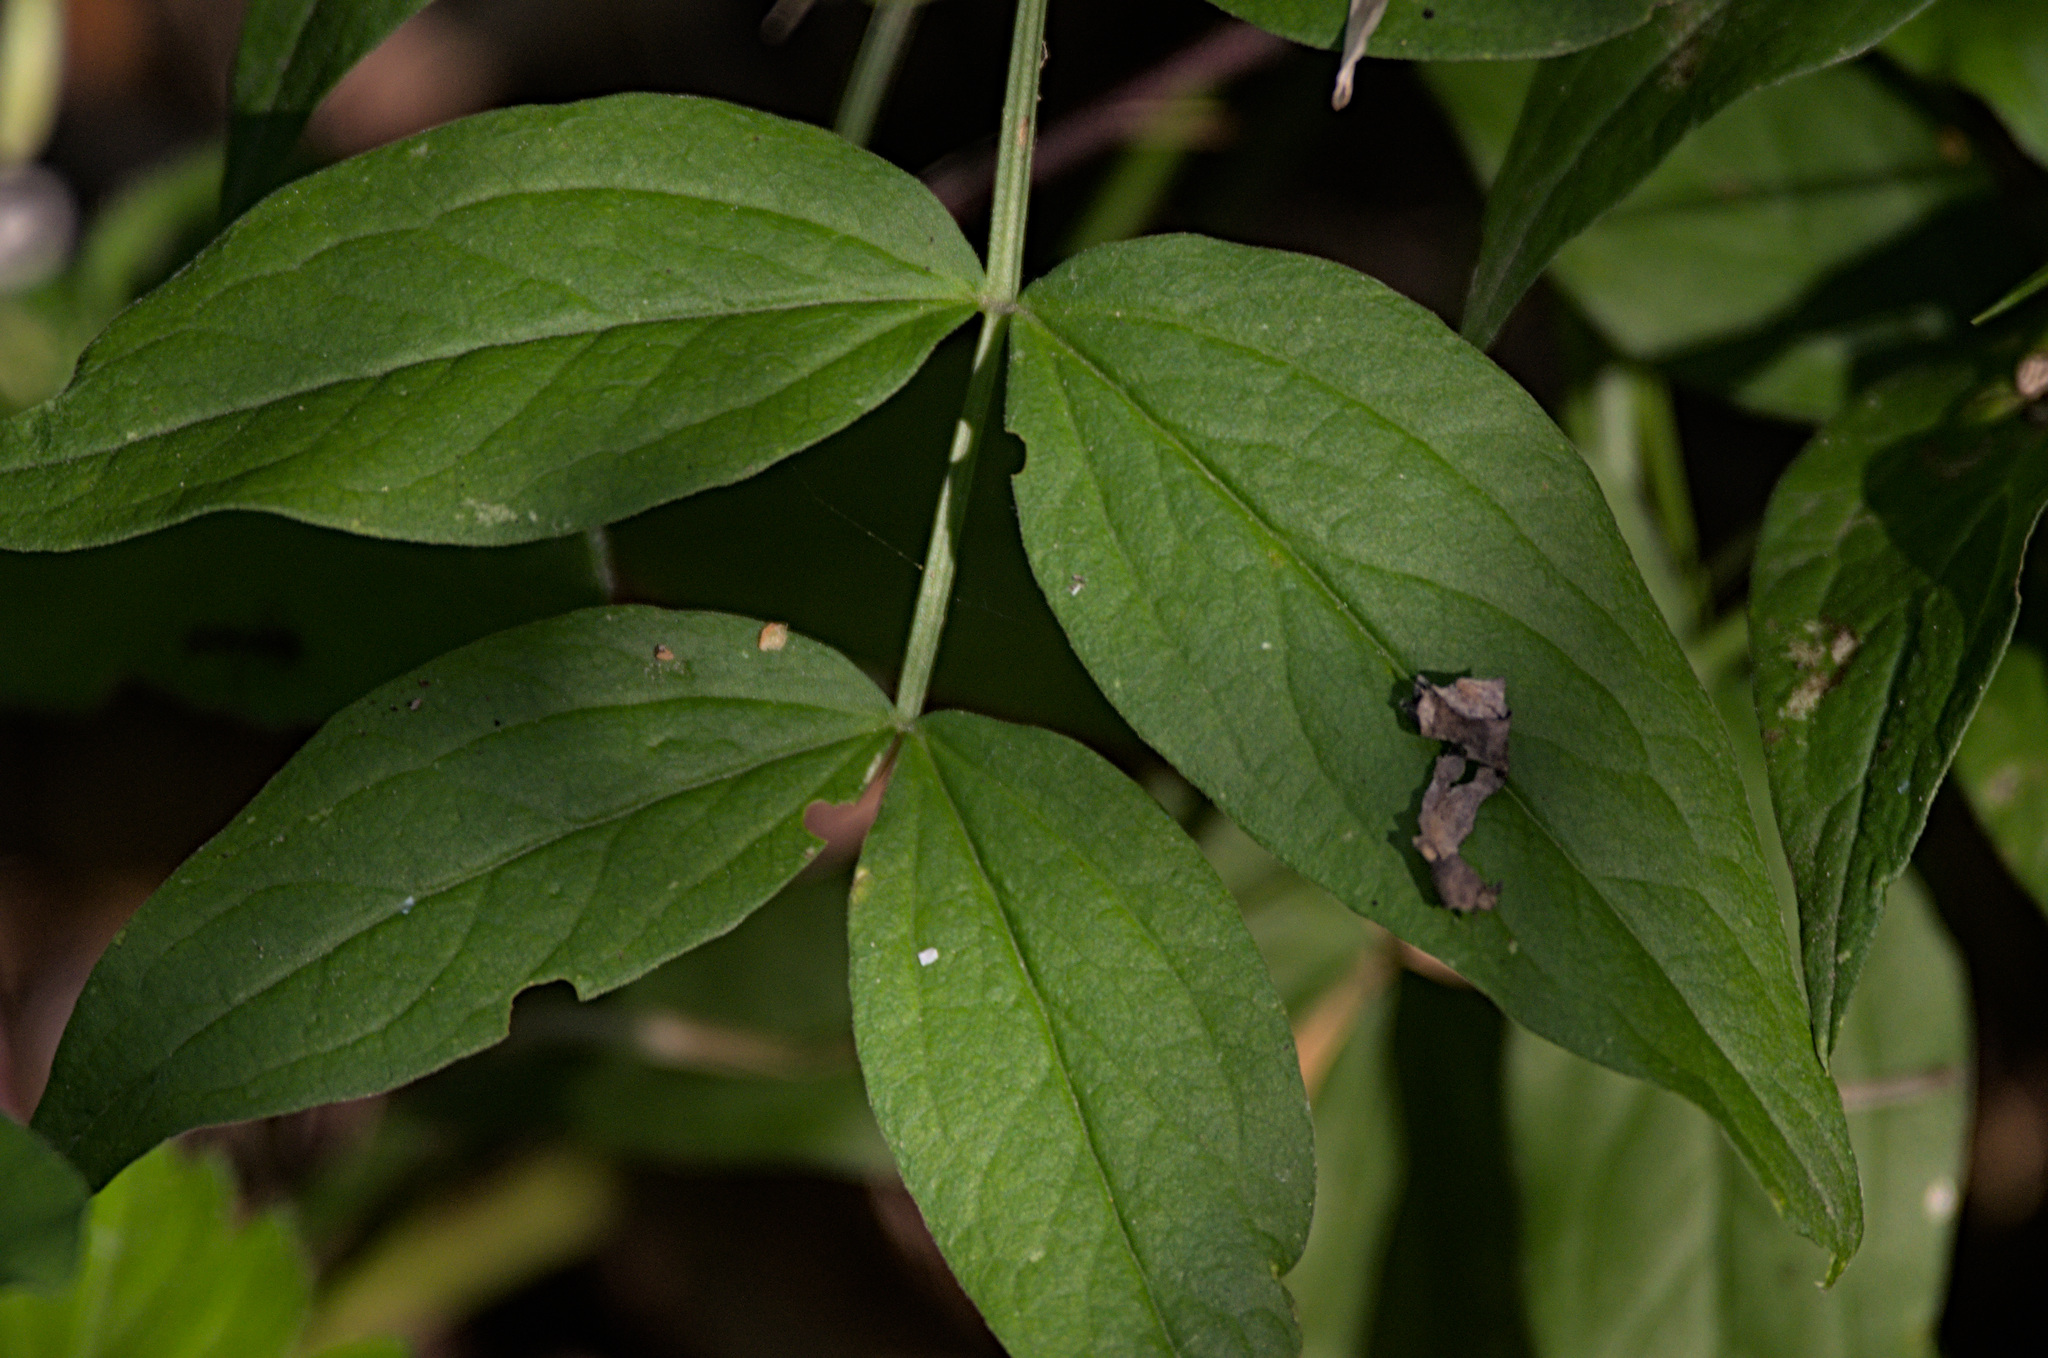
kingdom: Plantae
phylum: Tracheophyta
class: Magnoliopsida
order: Fabales
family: Fabaceae
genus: Lathyrus
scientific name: Lathyrus vernus
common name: Spring pea
